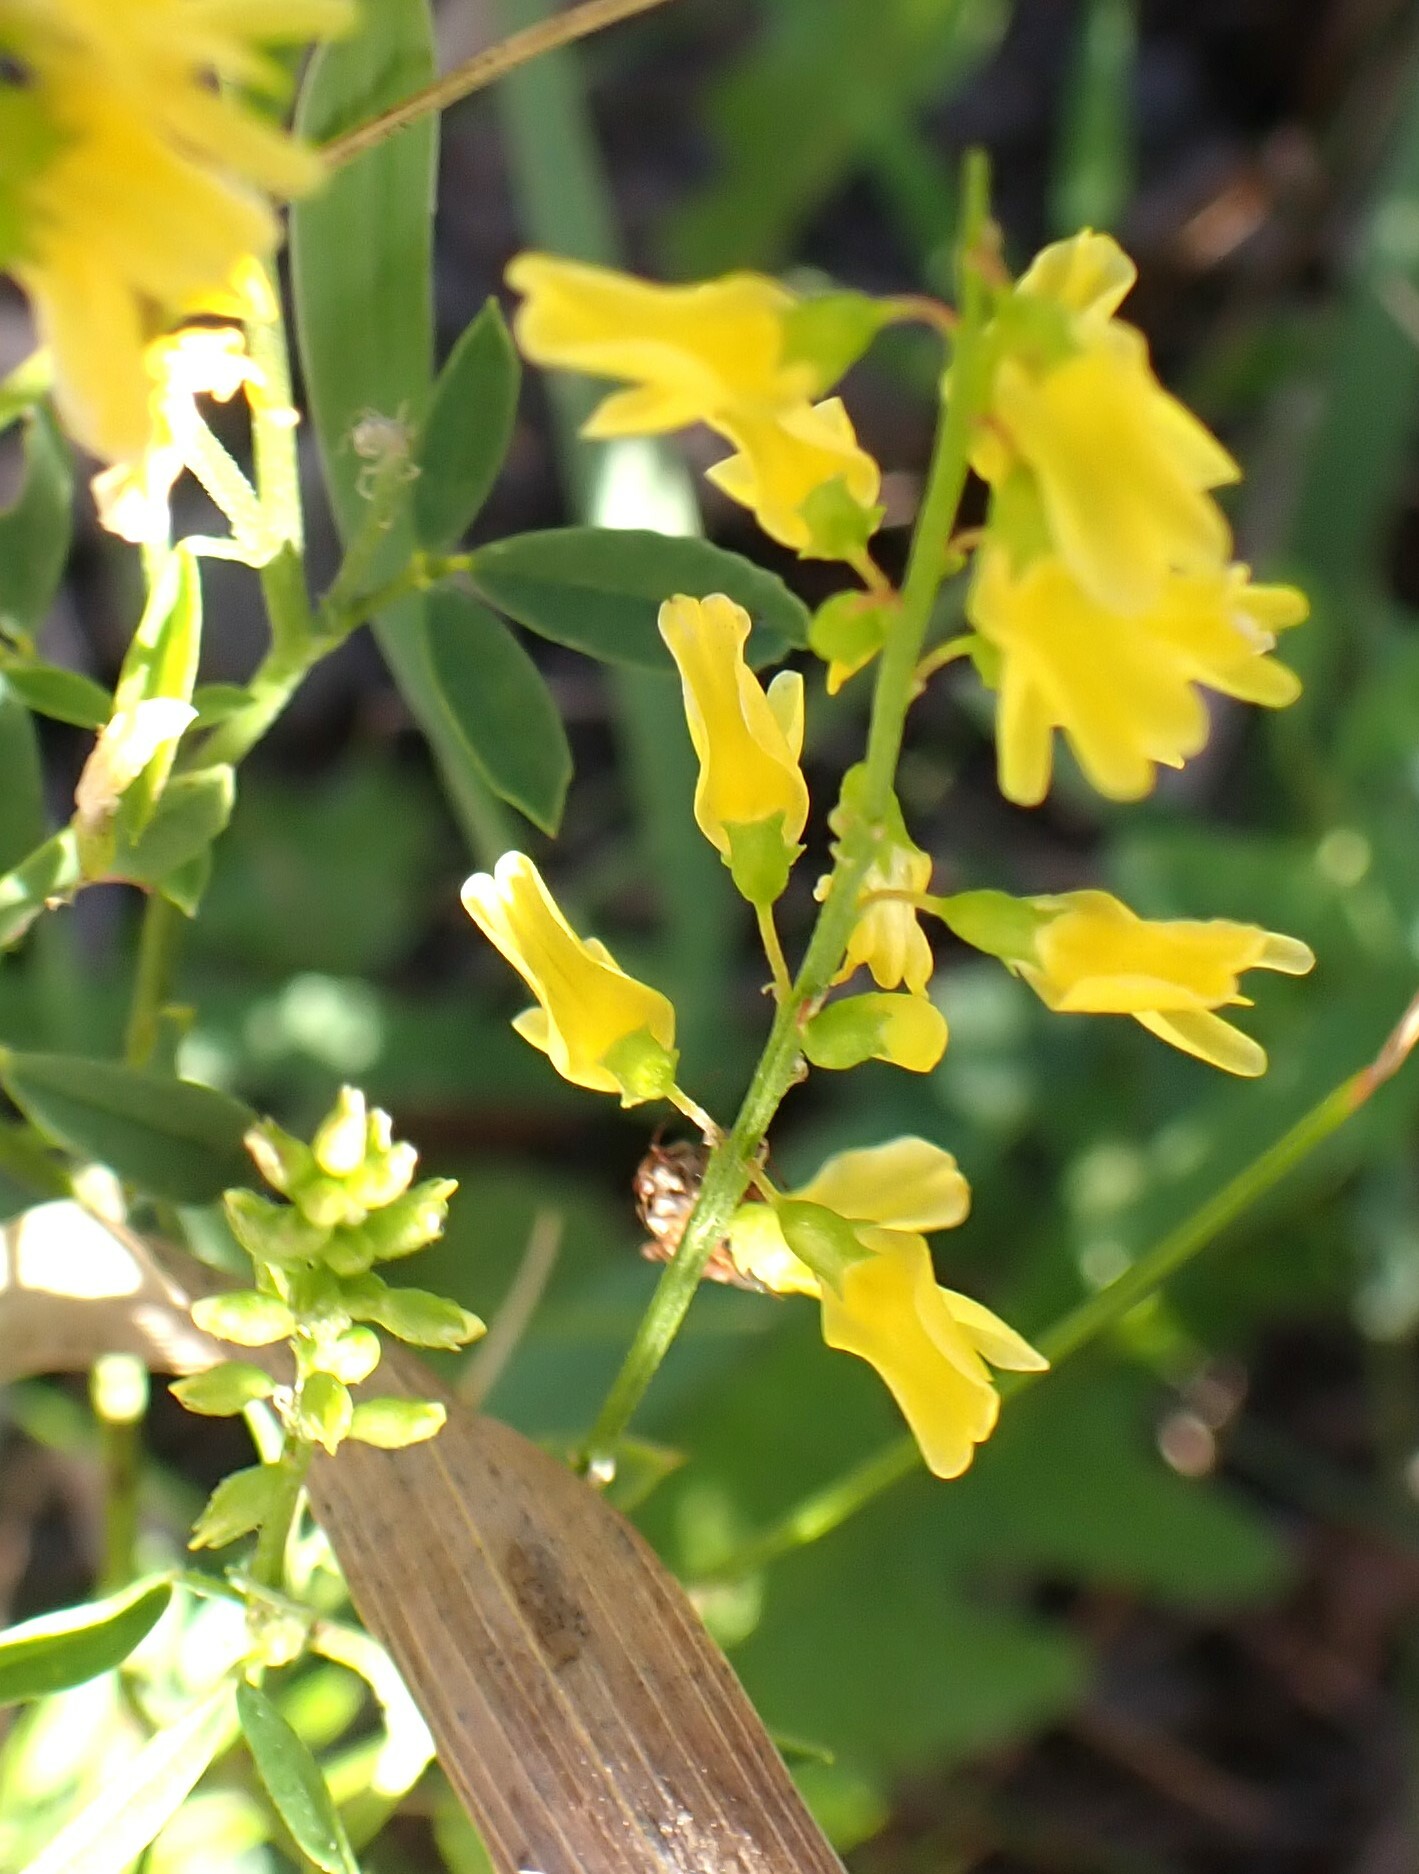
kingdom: Plantae
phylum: Tracheophyta
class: Magnoliopsida
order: Fabales
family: Fabaceae
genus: Melilotus
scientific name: Melilotus officinalis
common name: Sweetclover
